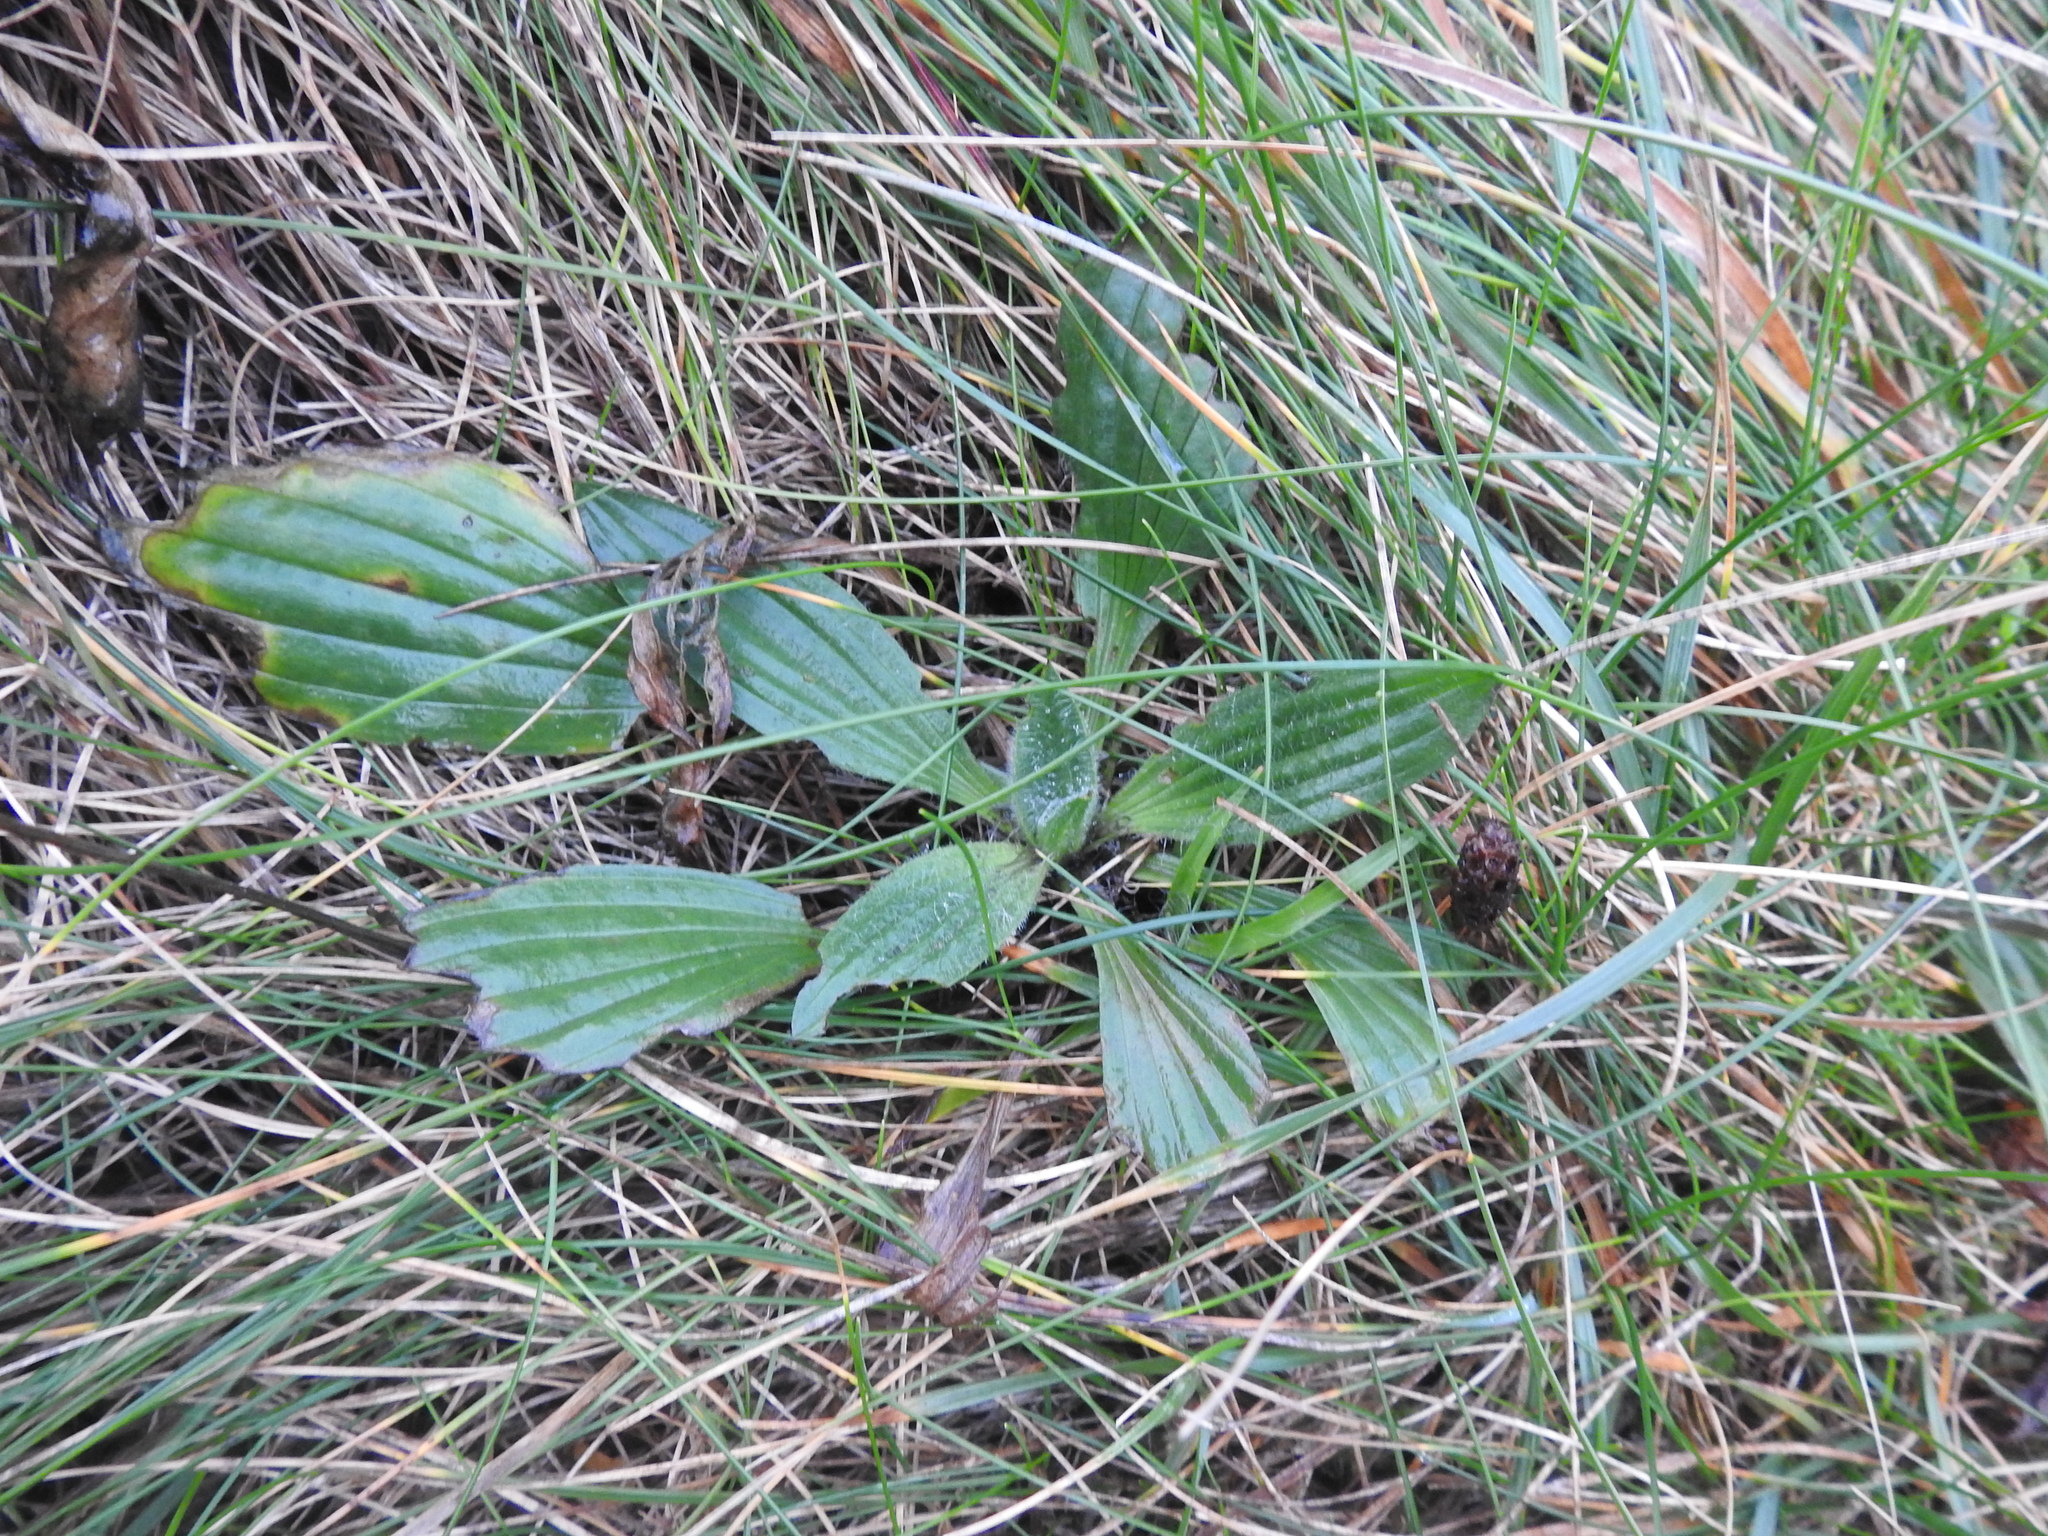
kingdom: Plantae
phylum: Tracheophyta
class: Magnoliopsida
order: Lamiales
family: Plantaginaceae
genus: Plantago
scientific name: Plantago media
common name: Hoary plantain
